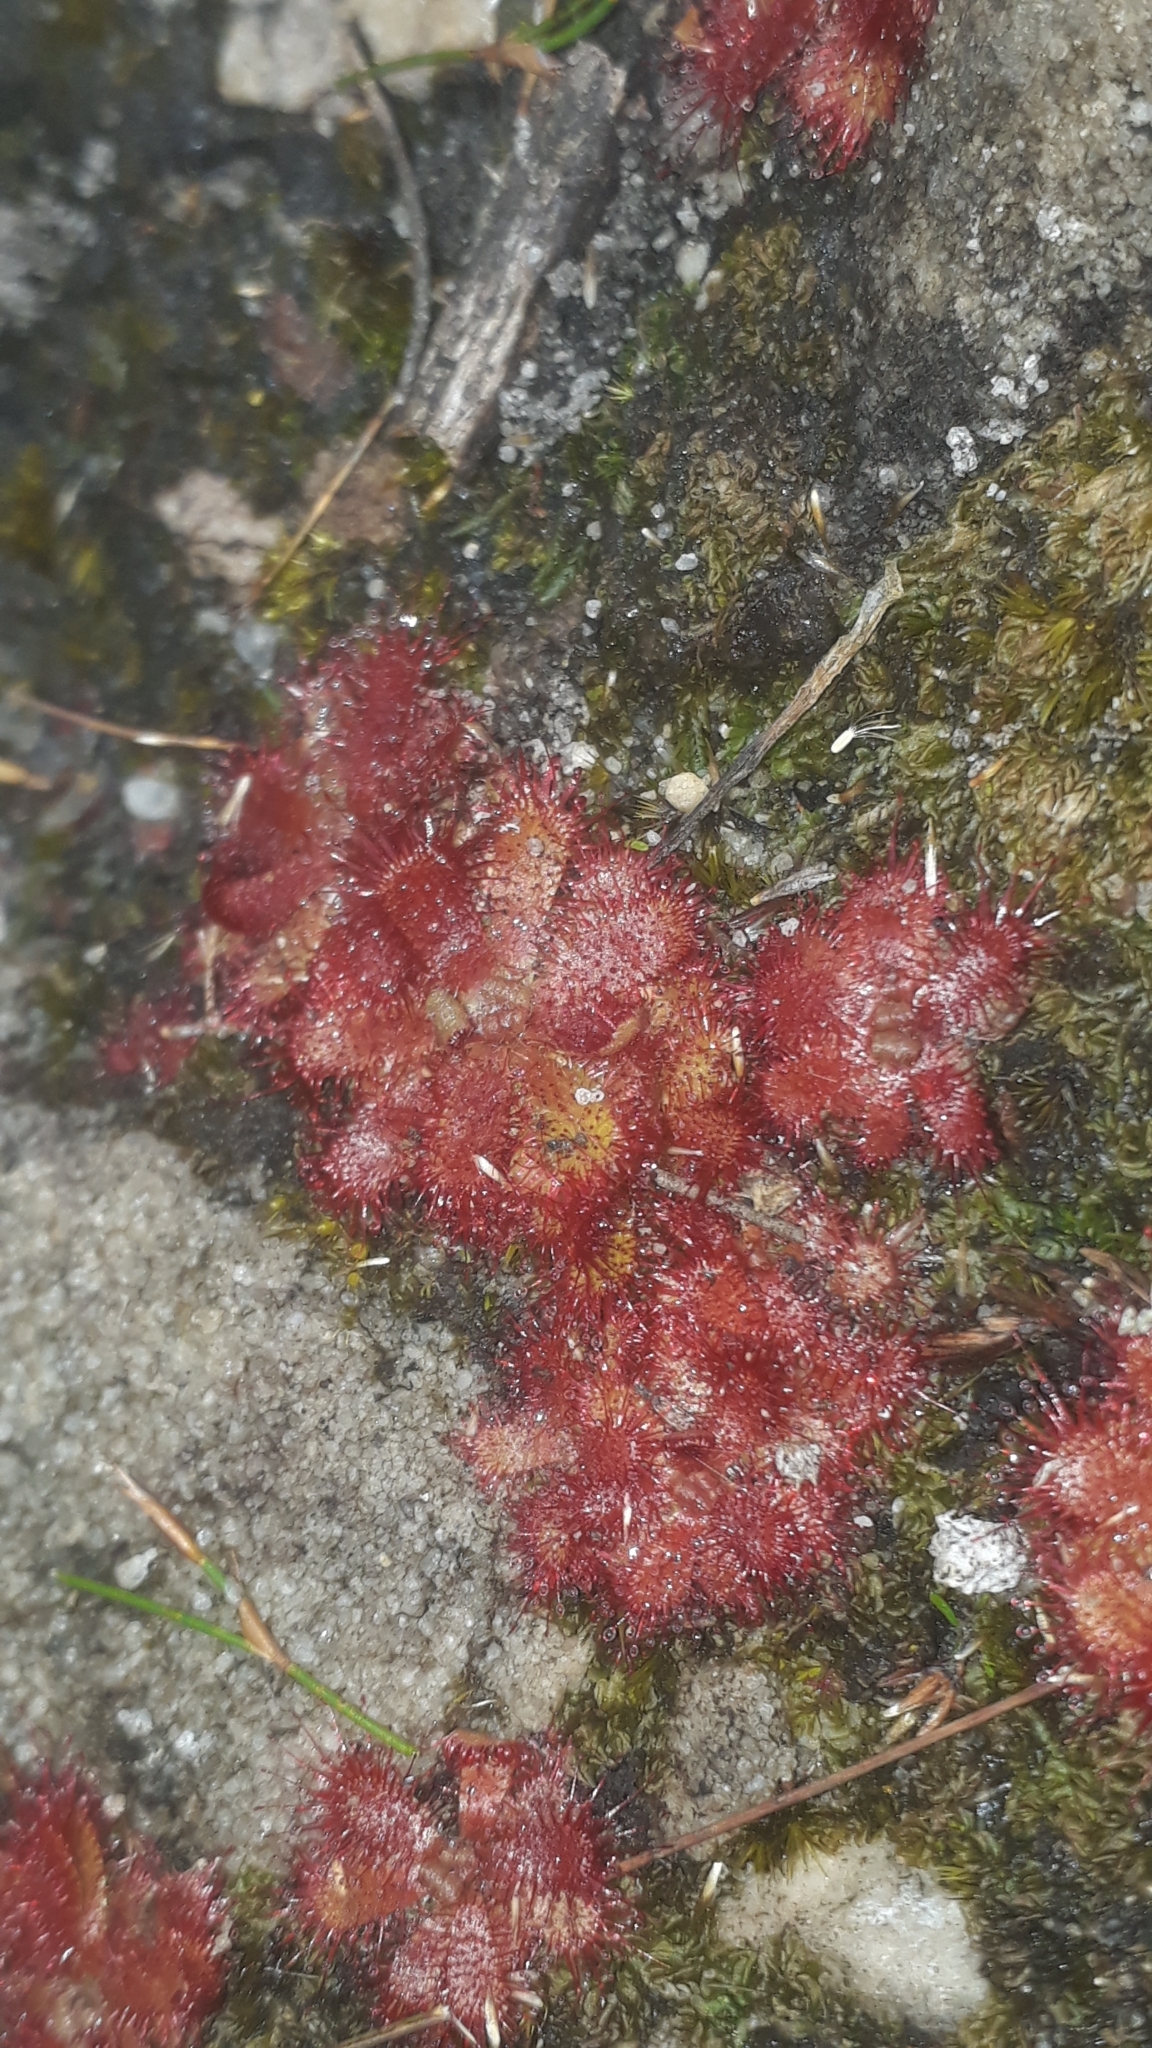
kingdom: Plantae
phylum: Tracheophyta
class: Magnoliopsida
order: Caryophyllales
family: Droseraceae
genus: Drosera
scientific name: Drosera trinervia
